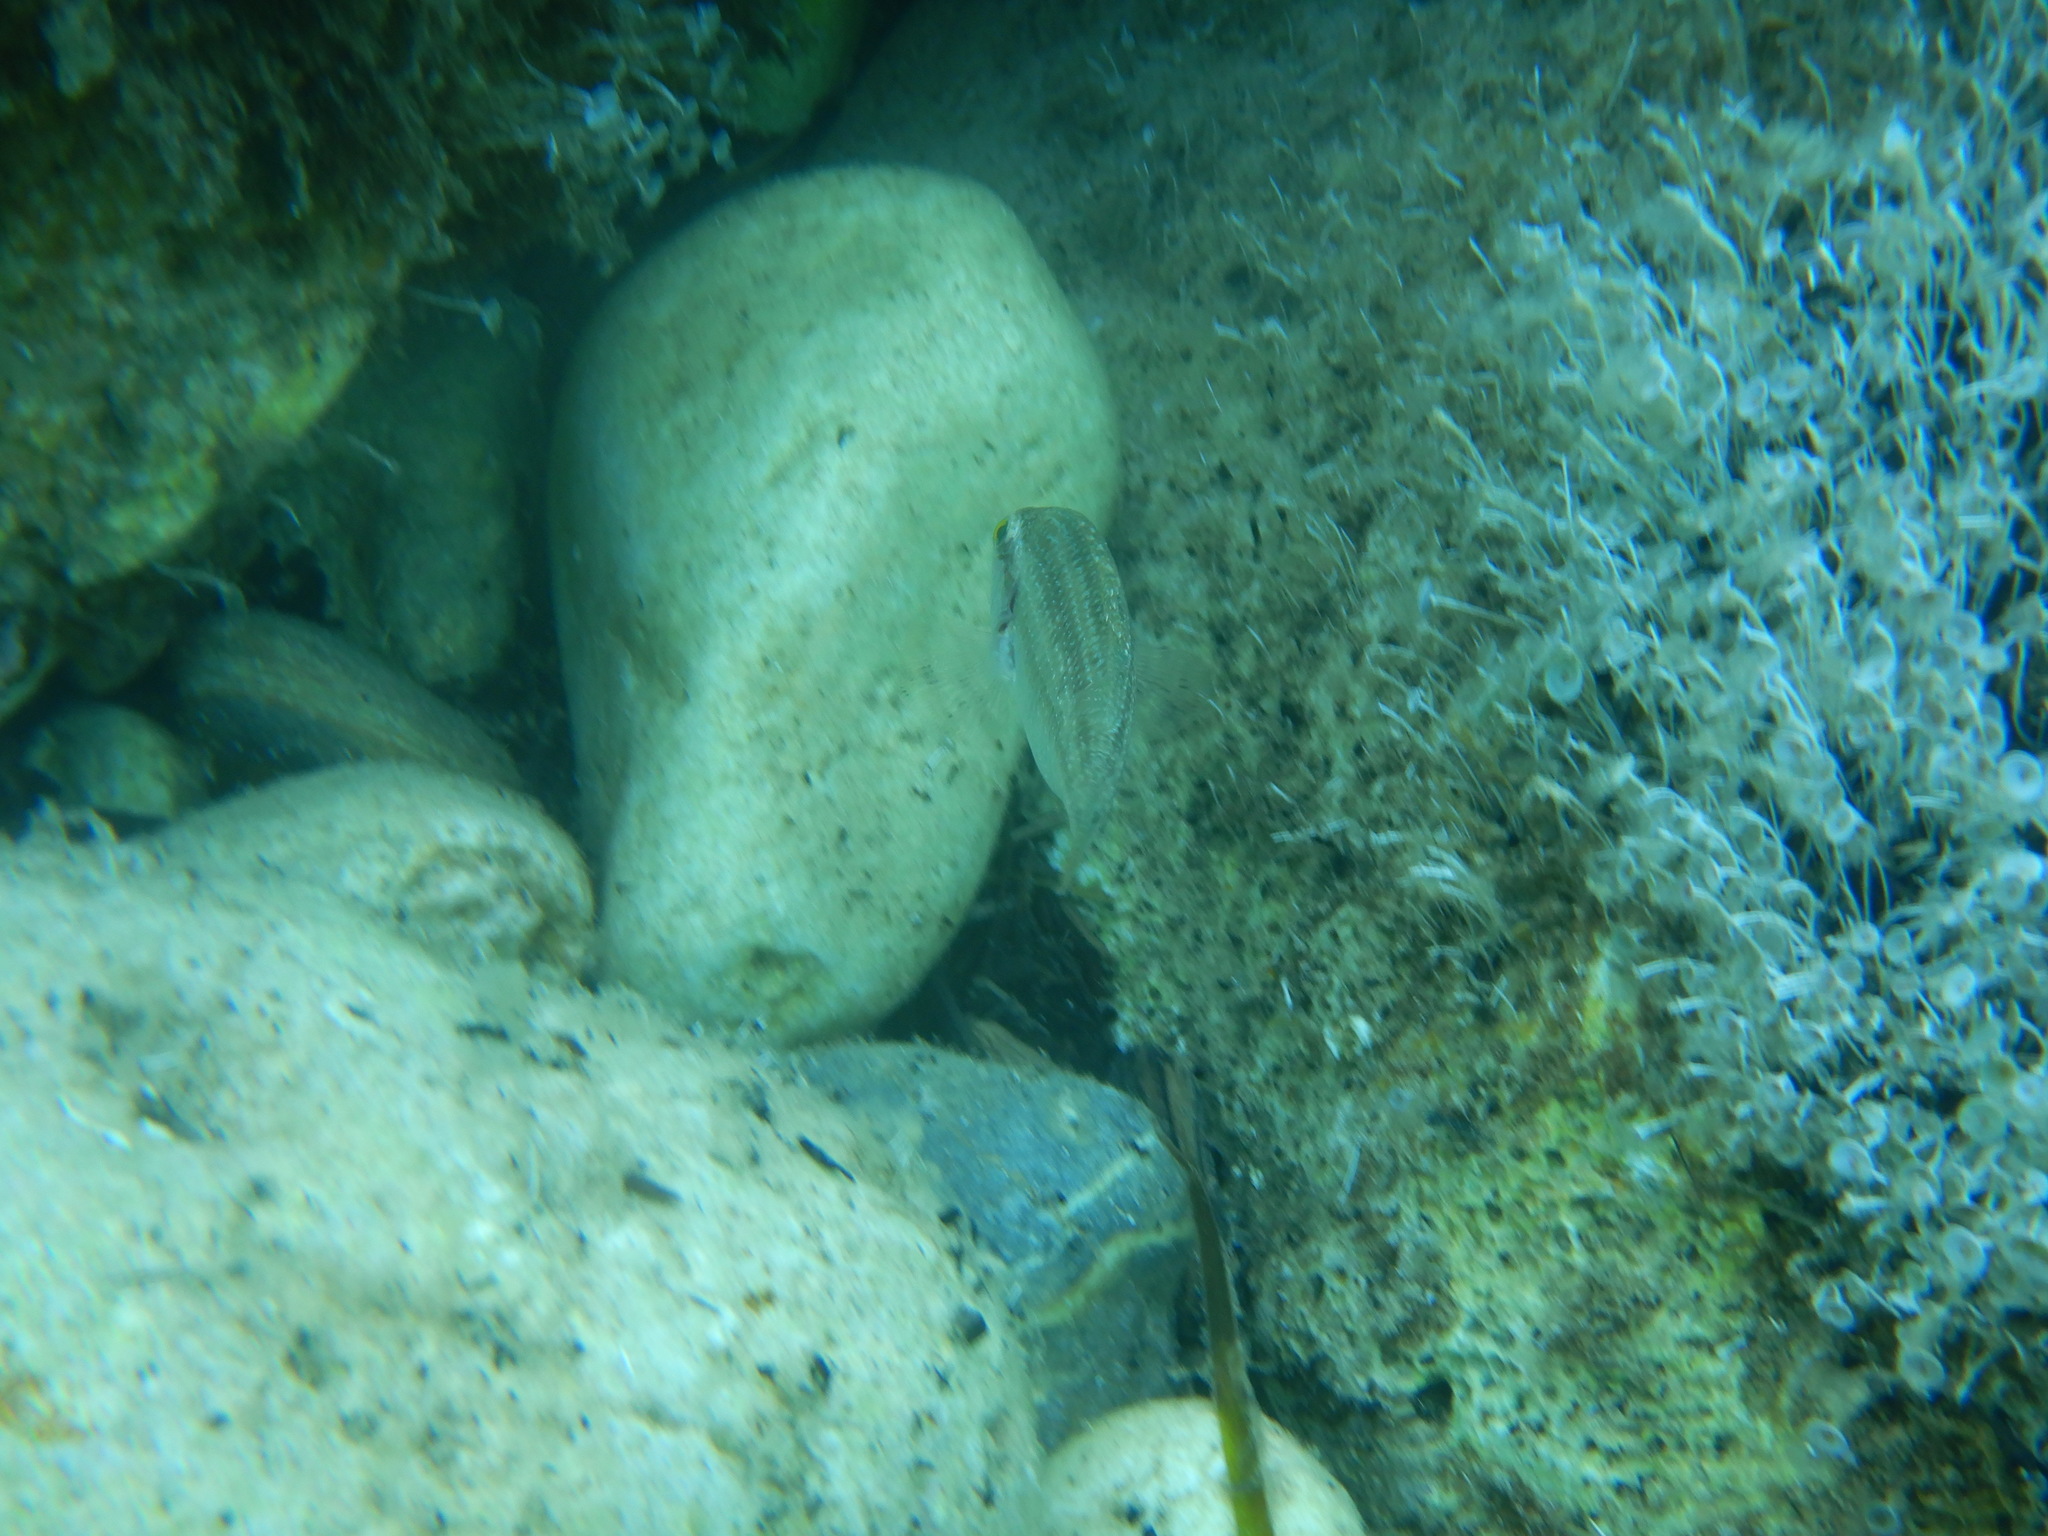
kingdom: Animalia
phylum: Chordata
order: Perciformes
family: Labridae
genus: Symphodus
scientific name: Symphodus tinca
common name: Peacock wrasse
